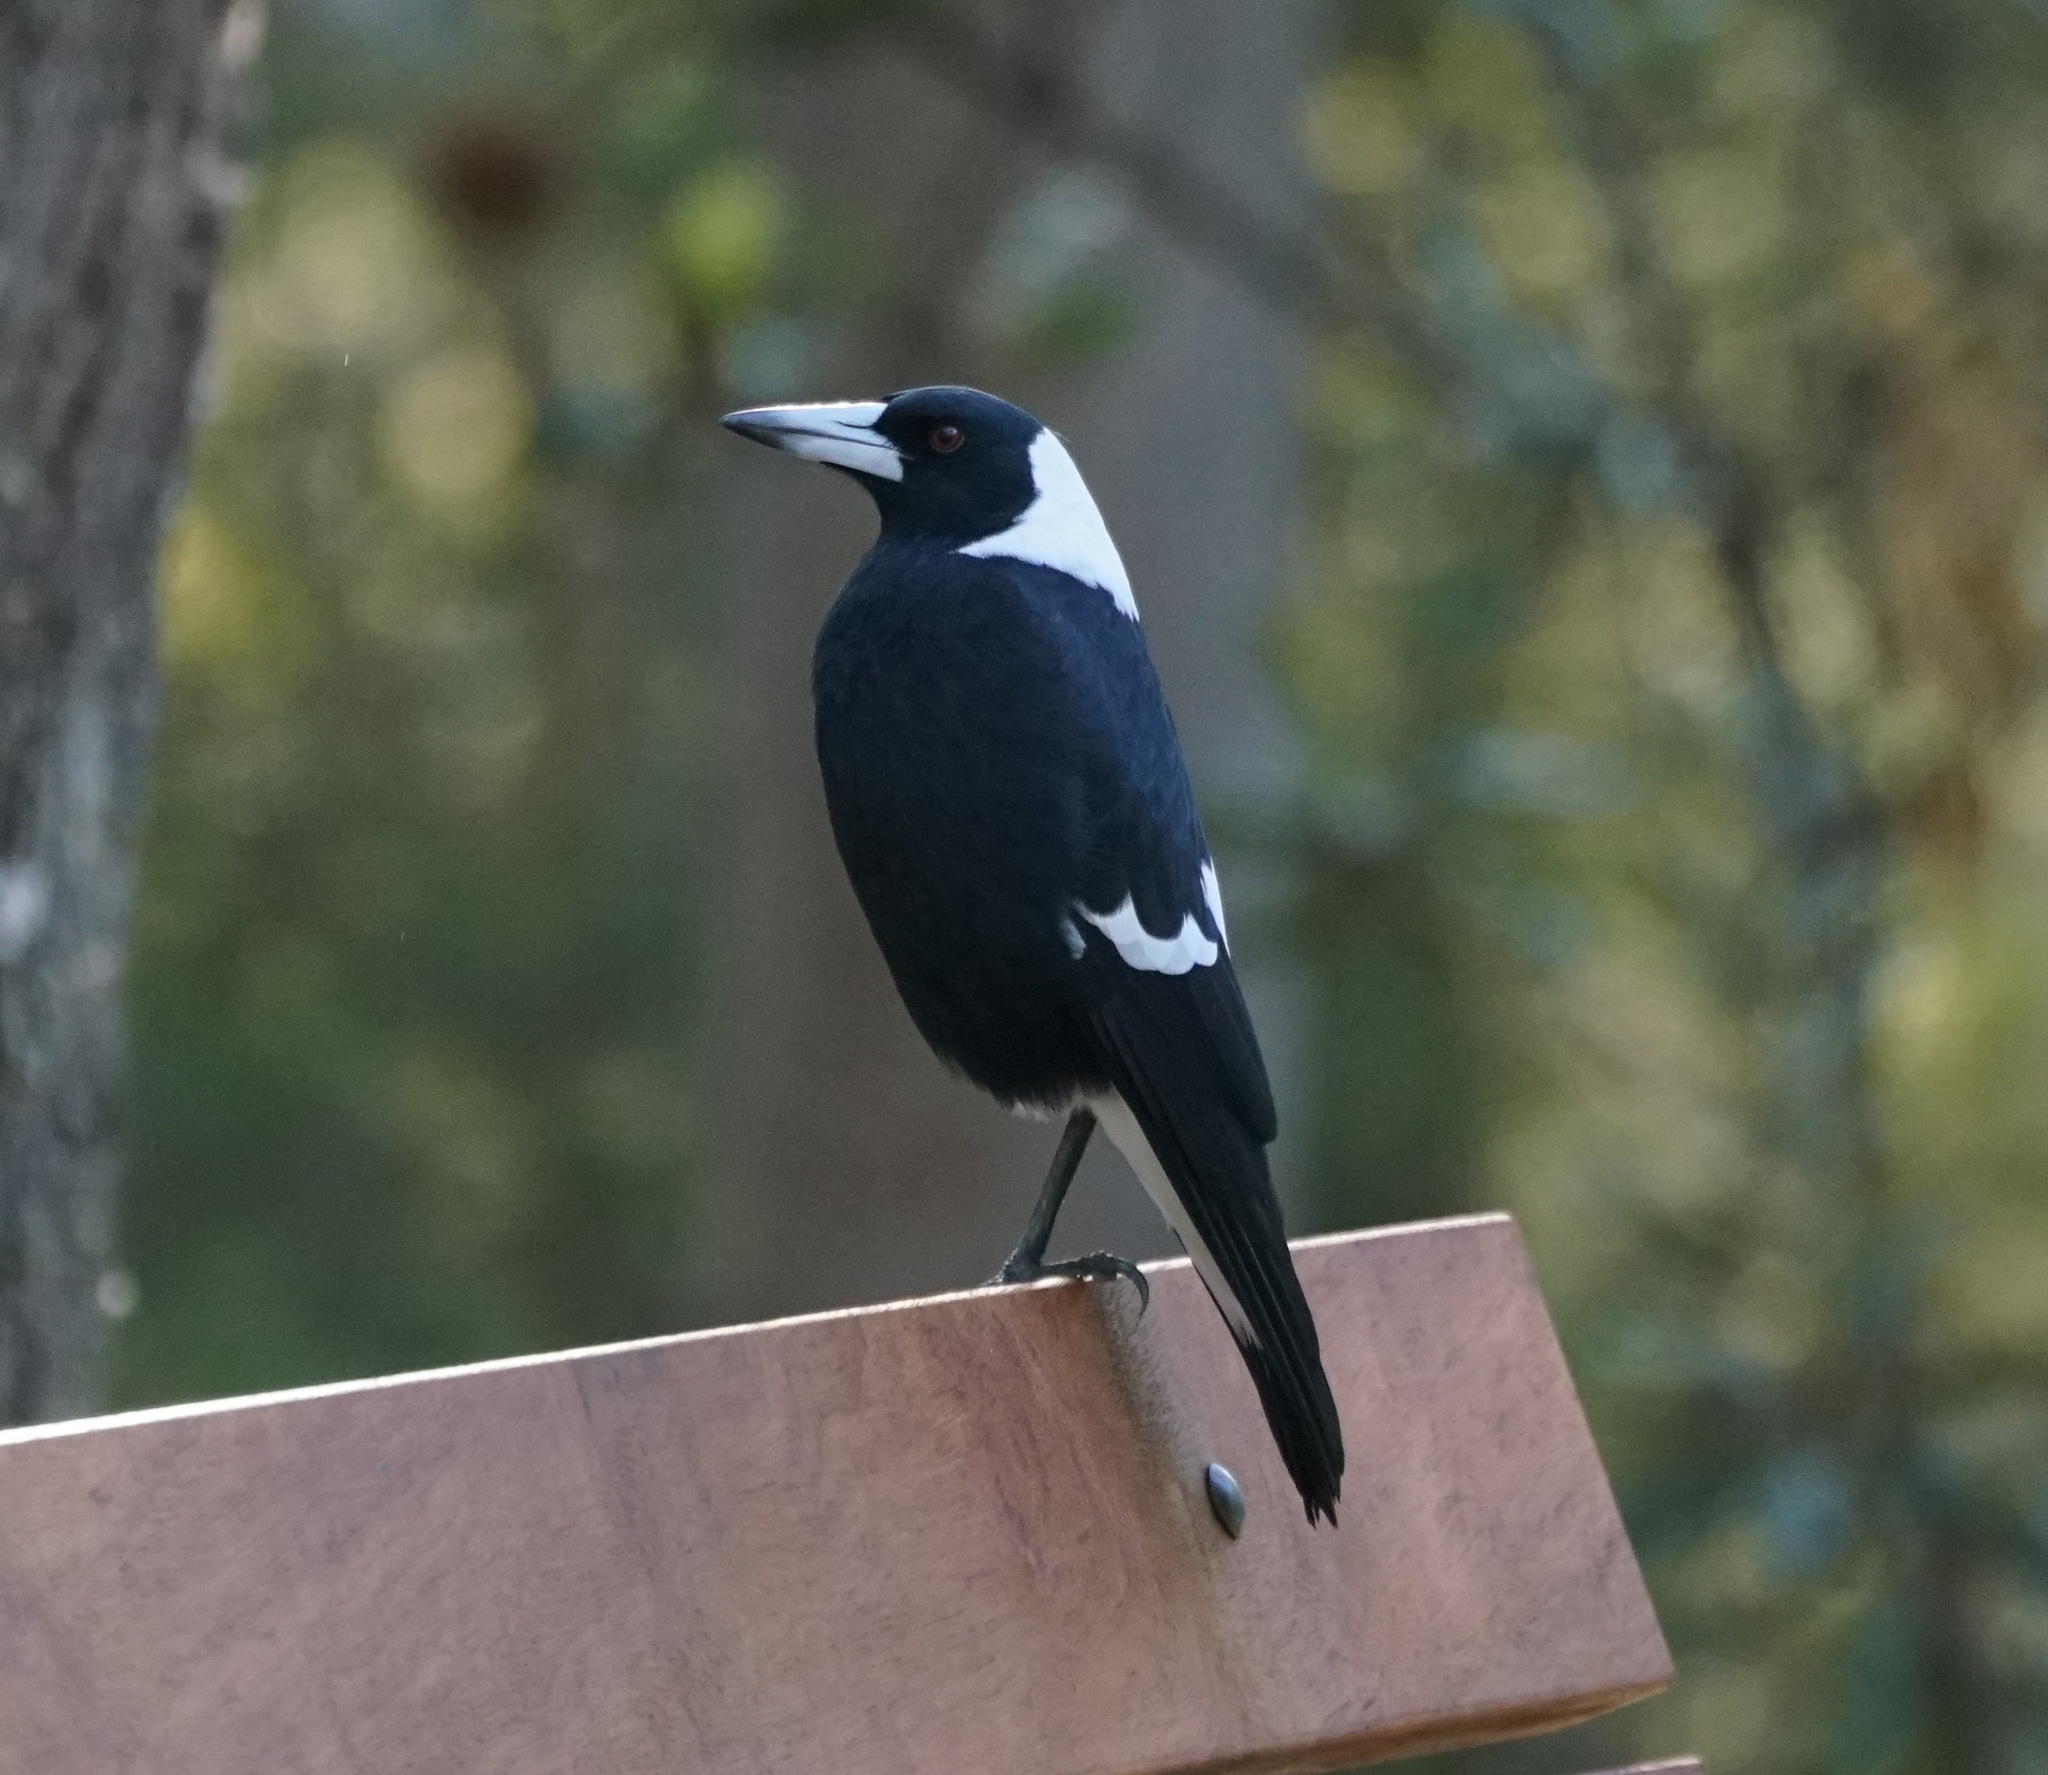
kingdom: Animalia
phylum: Chordata
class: Aves
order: Passeriformes
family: Cracticidae
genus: Gymnorhina
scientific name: Gymnorhina tibicen
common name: Australian magpie
